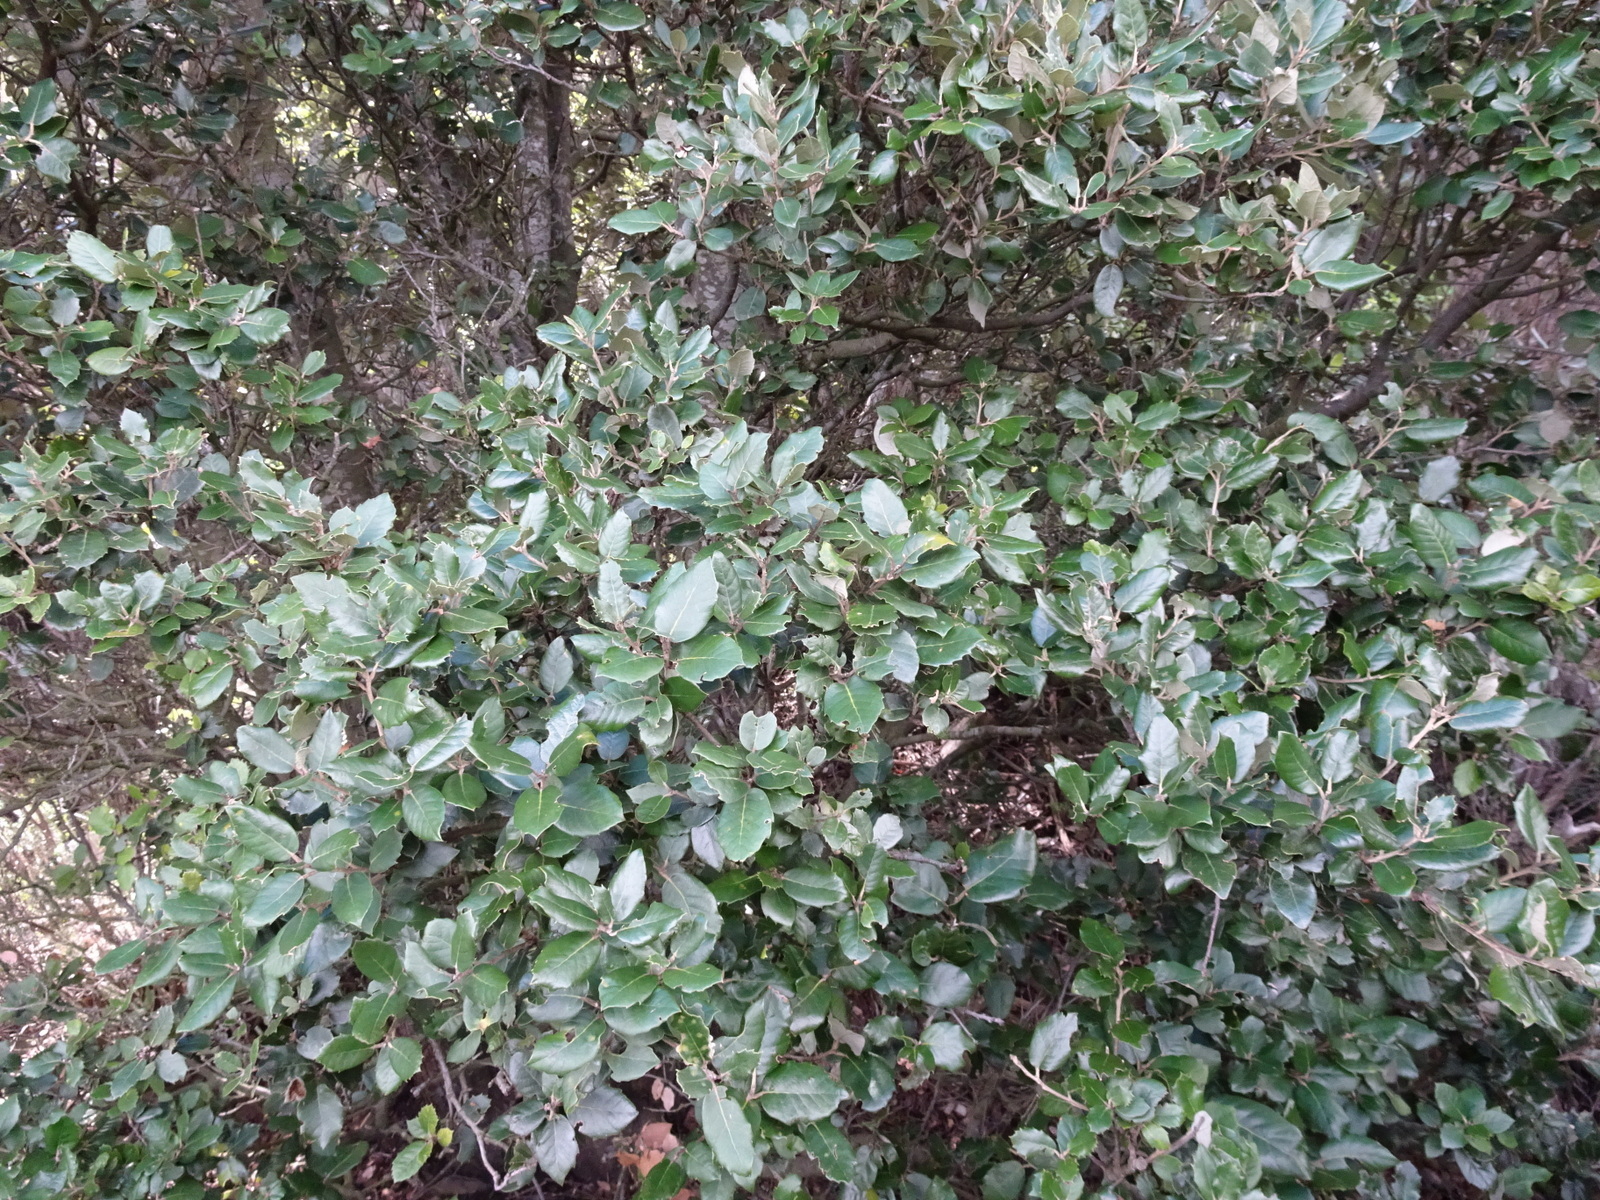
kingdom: Plantae
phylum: Tracheophyta
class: Magnoliopsida
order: Fagales
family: Fagaceae
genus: Quercus
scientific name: Quercus ilex
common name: Evergreen oak
